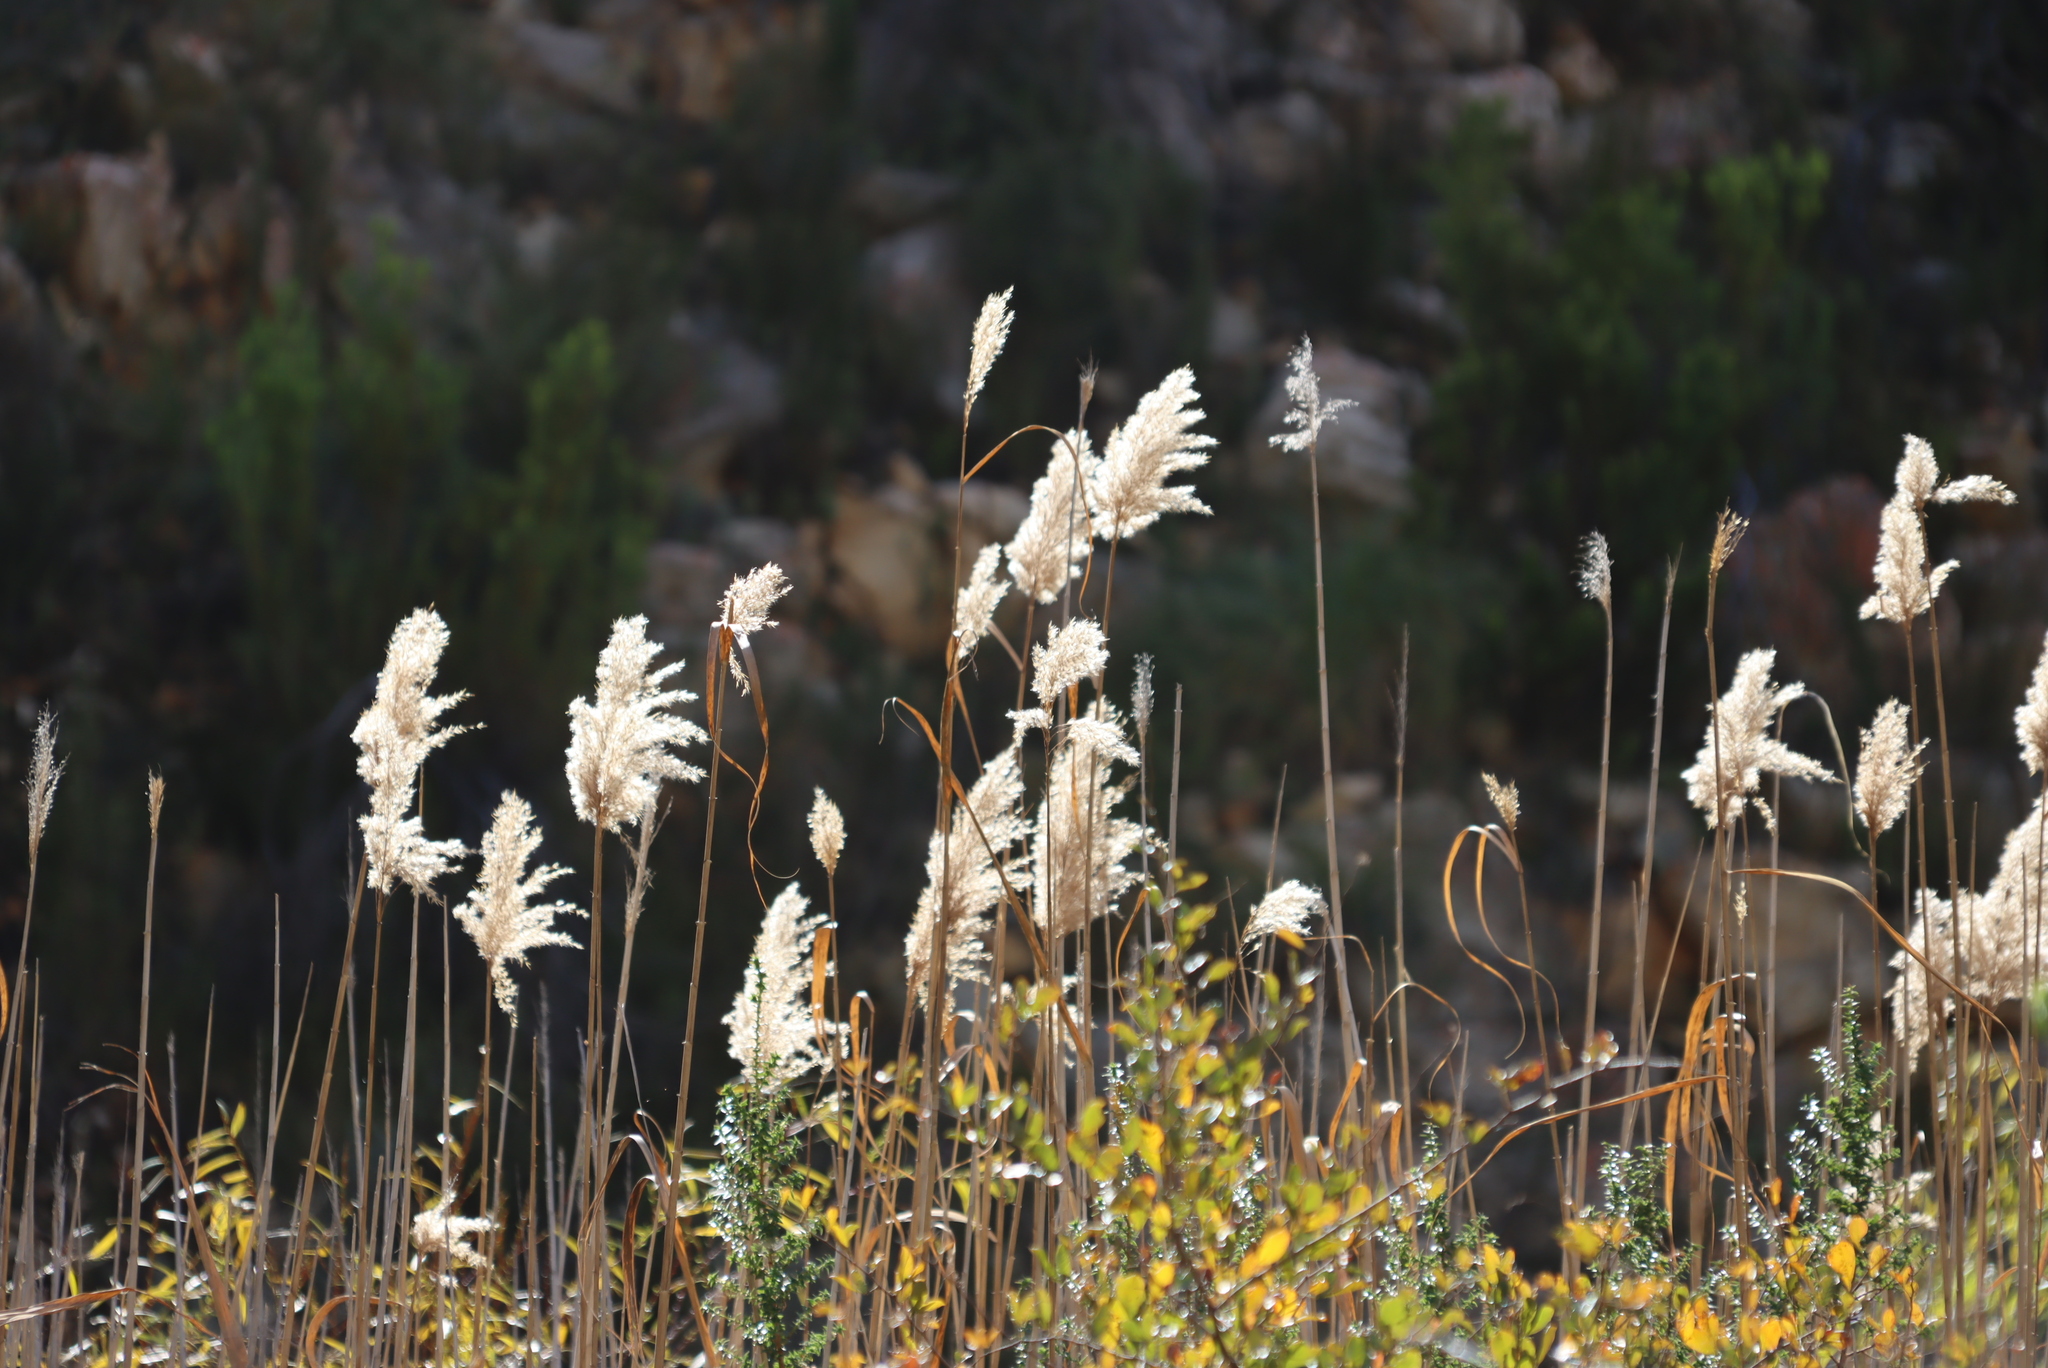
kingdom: Plantae
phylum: Tracheophyta
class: Liliopsida
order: Poales
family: Poaceae
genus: Phragmites
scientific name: Phragmites australis
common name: Common reed
